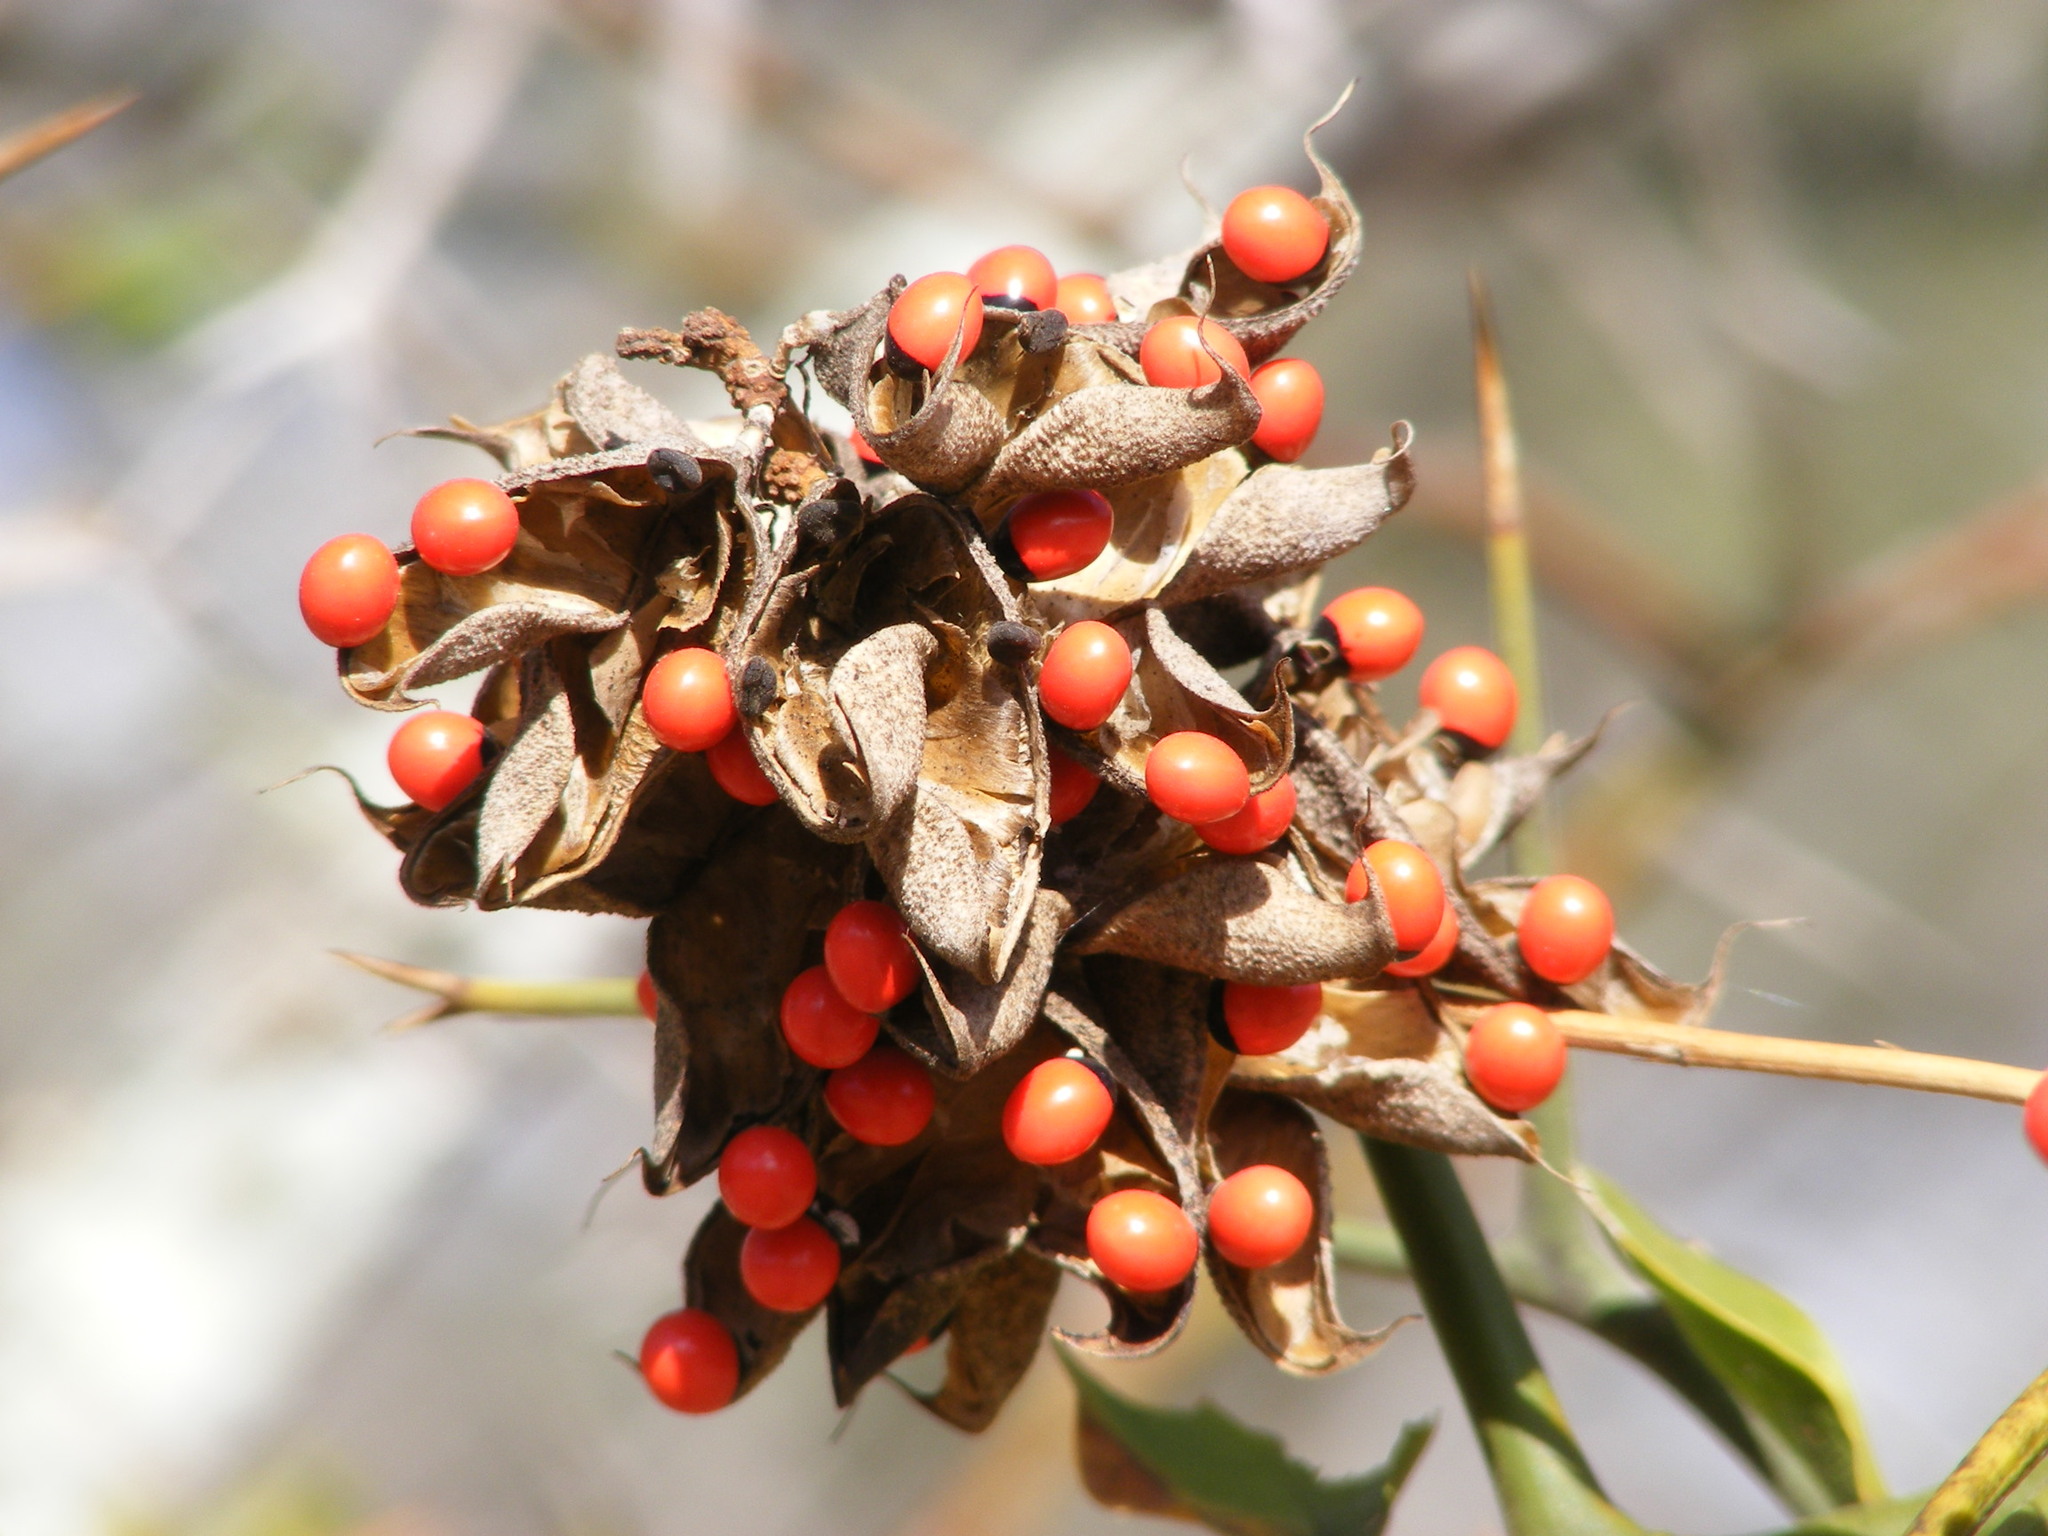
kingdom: Plantae
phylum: Tracheophyta
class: Magnoliopsida
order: Fabales
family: Fabaceae
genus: Abrus
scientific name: Abrus precatorius
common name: Rosarypea
